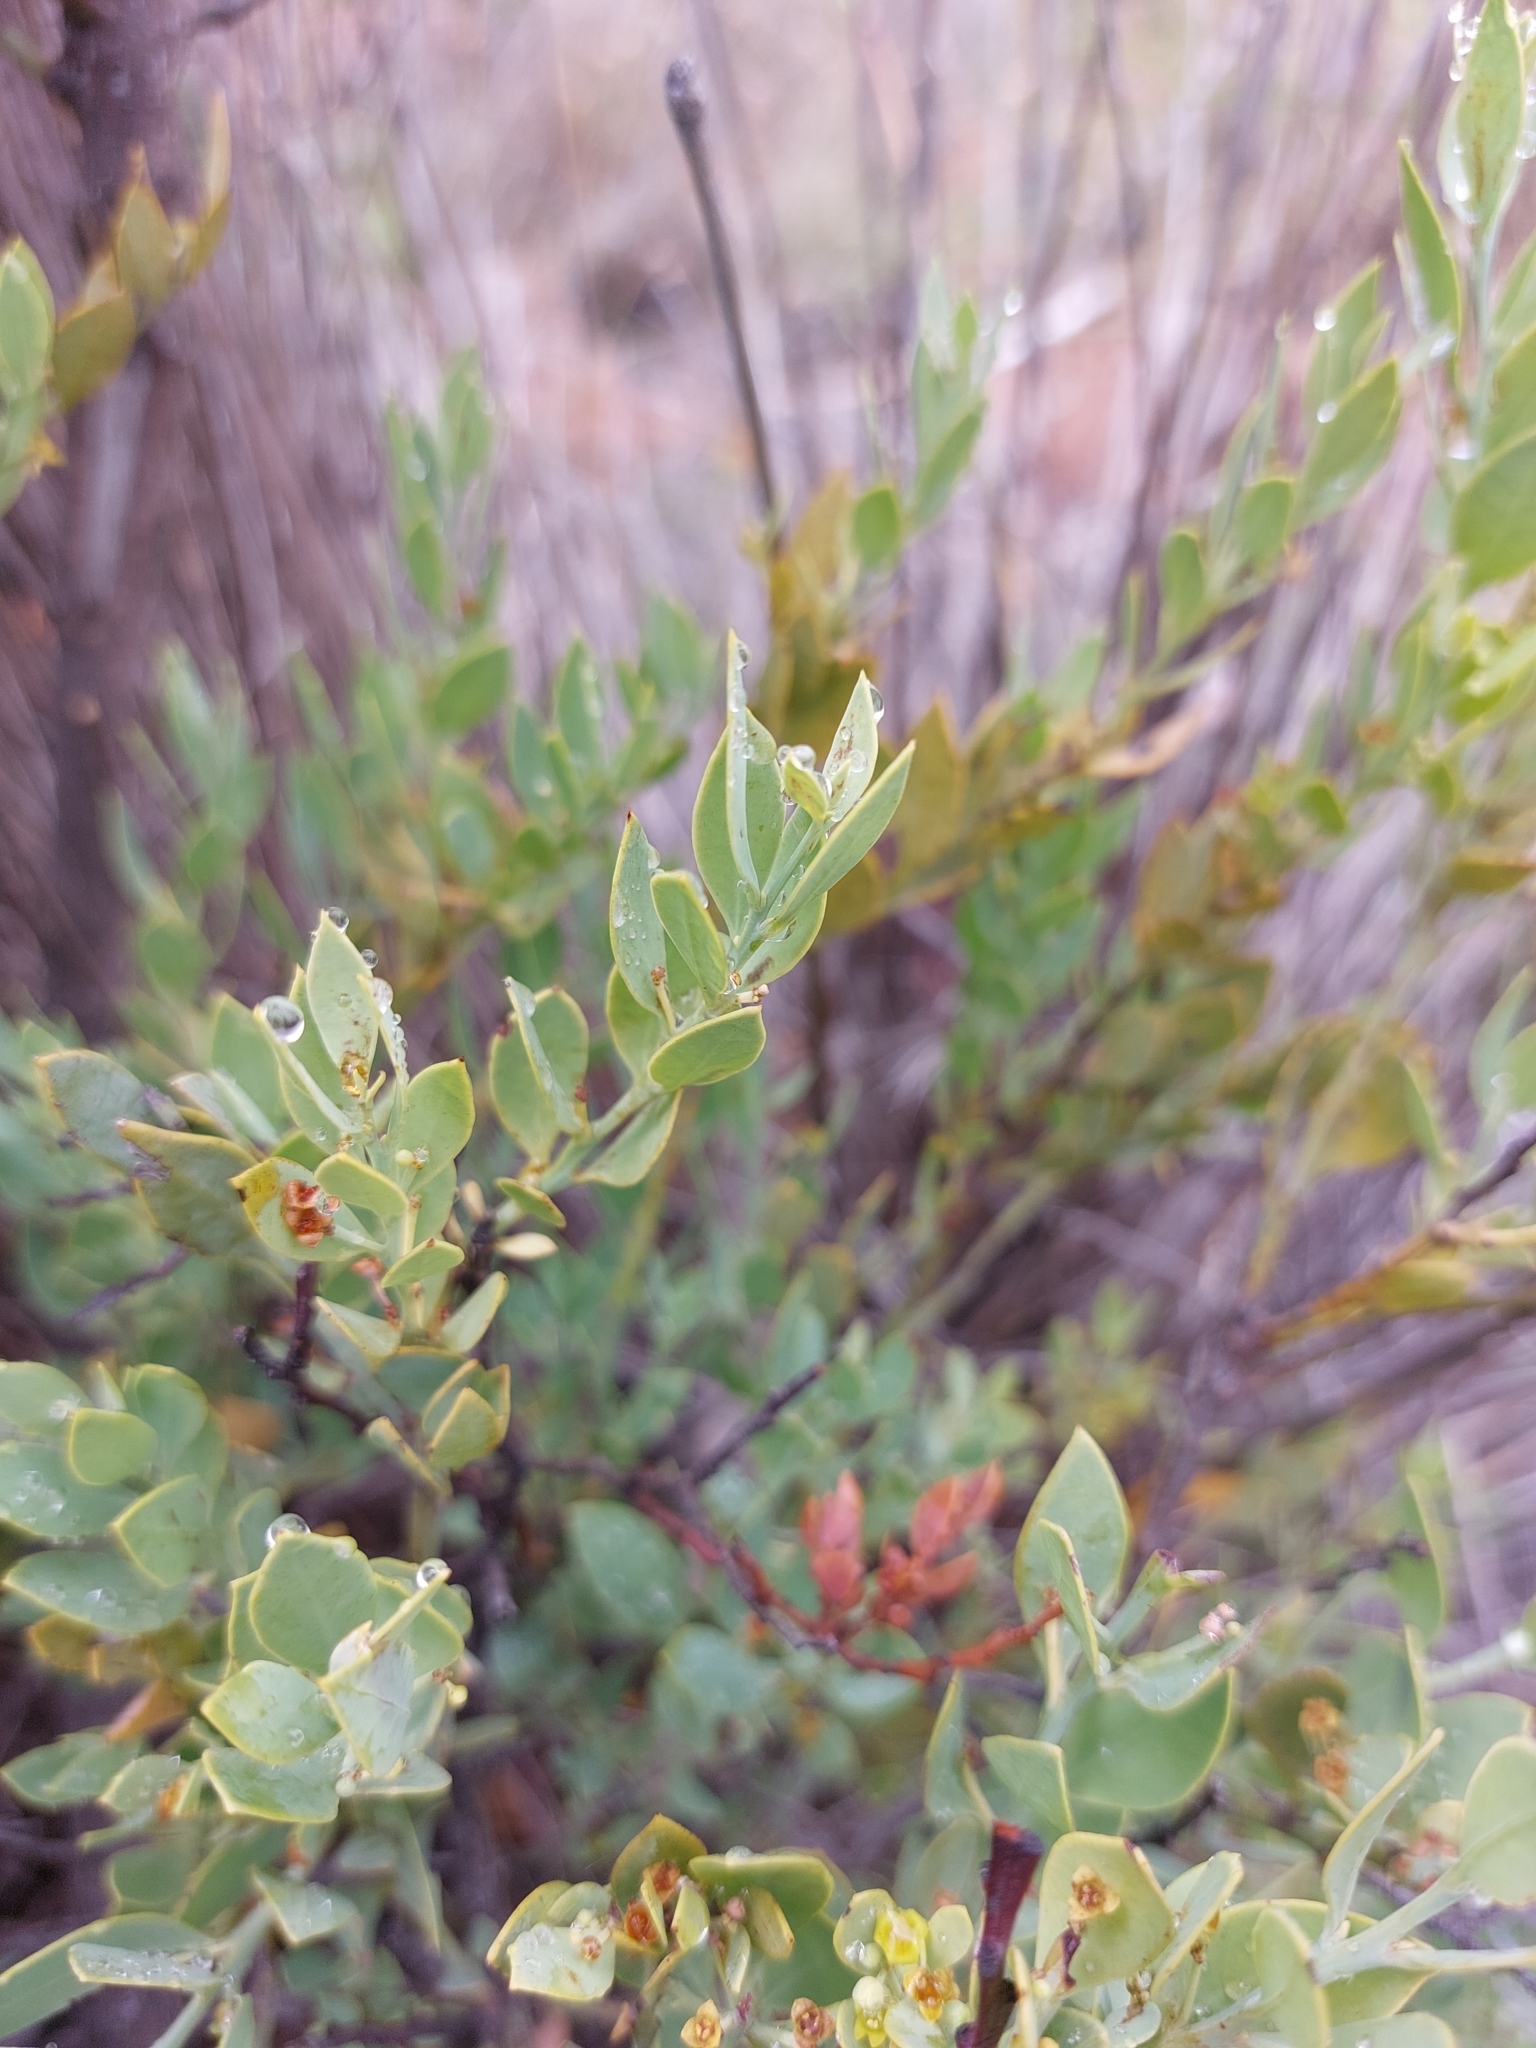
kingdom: Plantae
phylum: Tracheophyta
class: Magnoliopsida
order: Santalales
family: Santalaceae
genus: Osyris
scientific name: Osyris lanceolata
